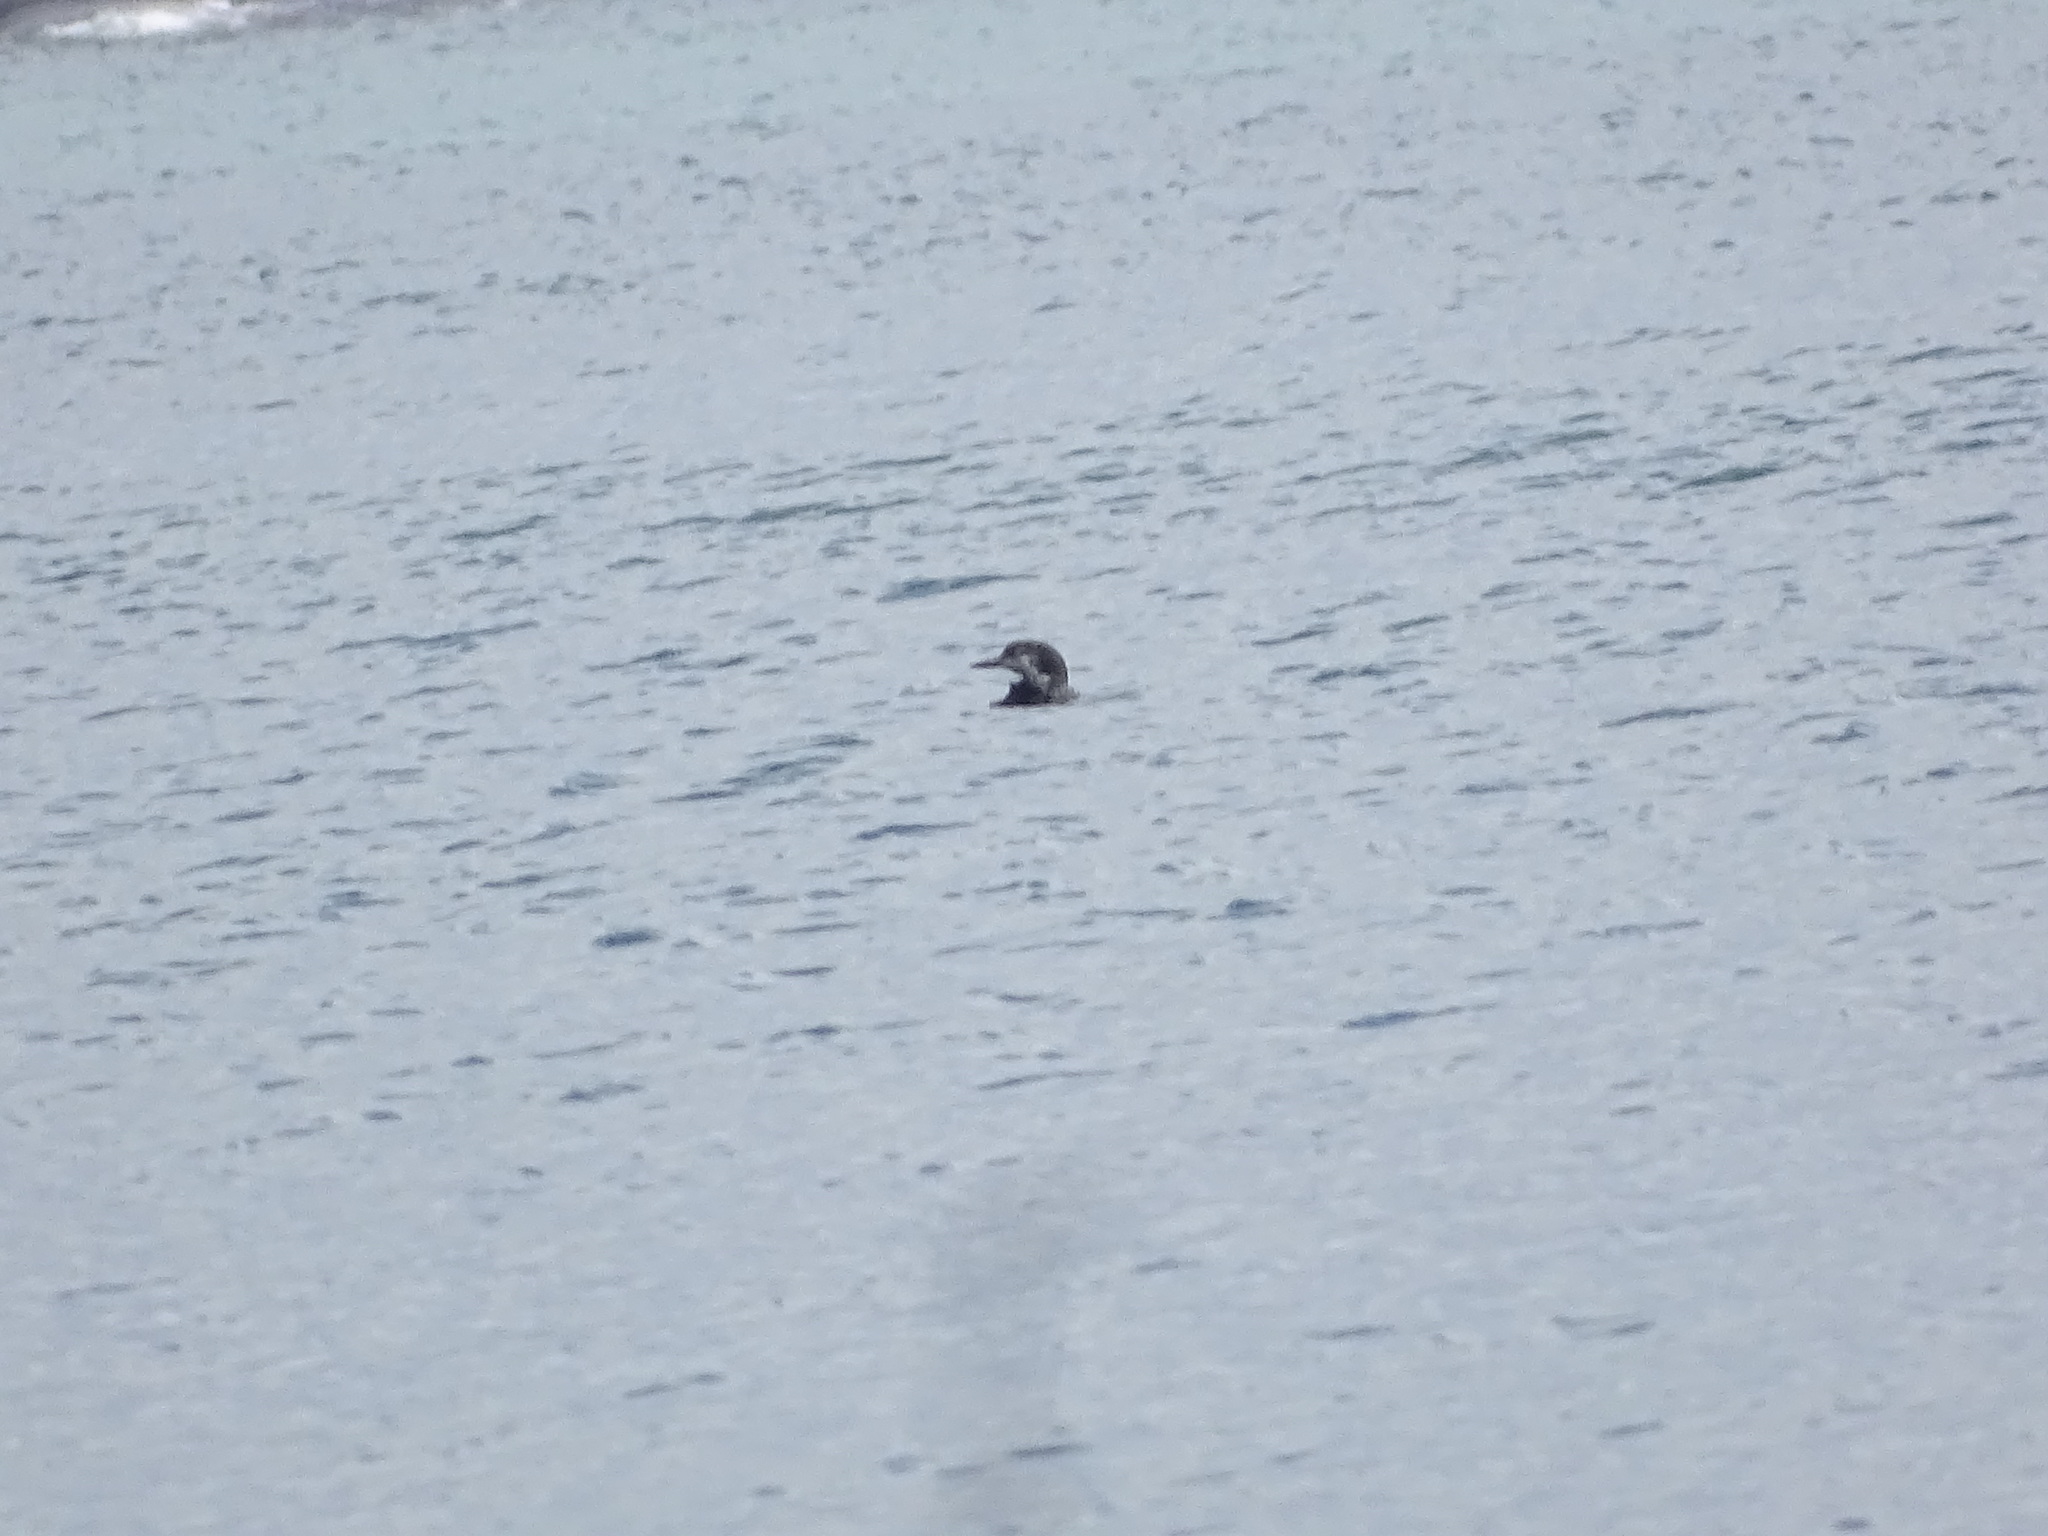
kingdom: Animalia
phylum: Chordata
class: Aves
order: Gaviiformes
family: Gaviidae
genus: Gavia
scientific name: Gavia immer
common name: Common loon
